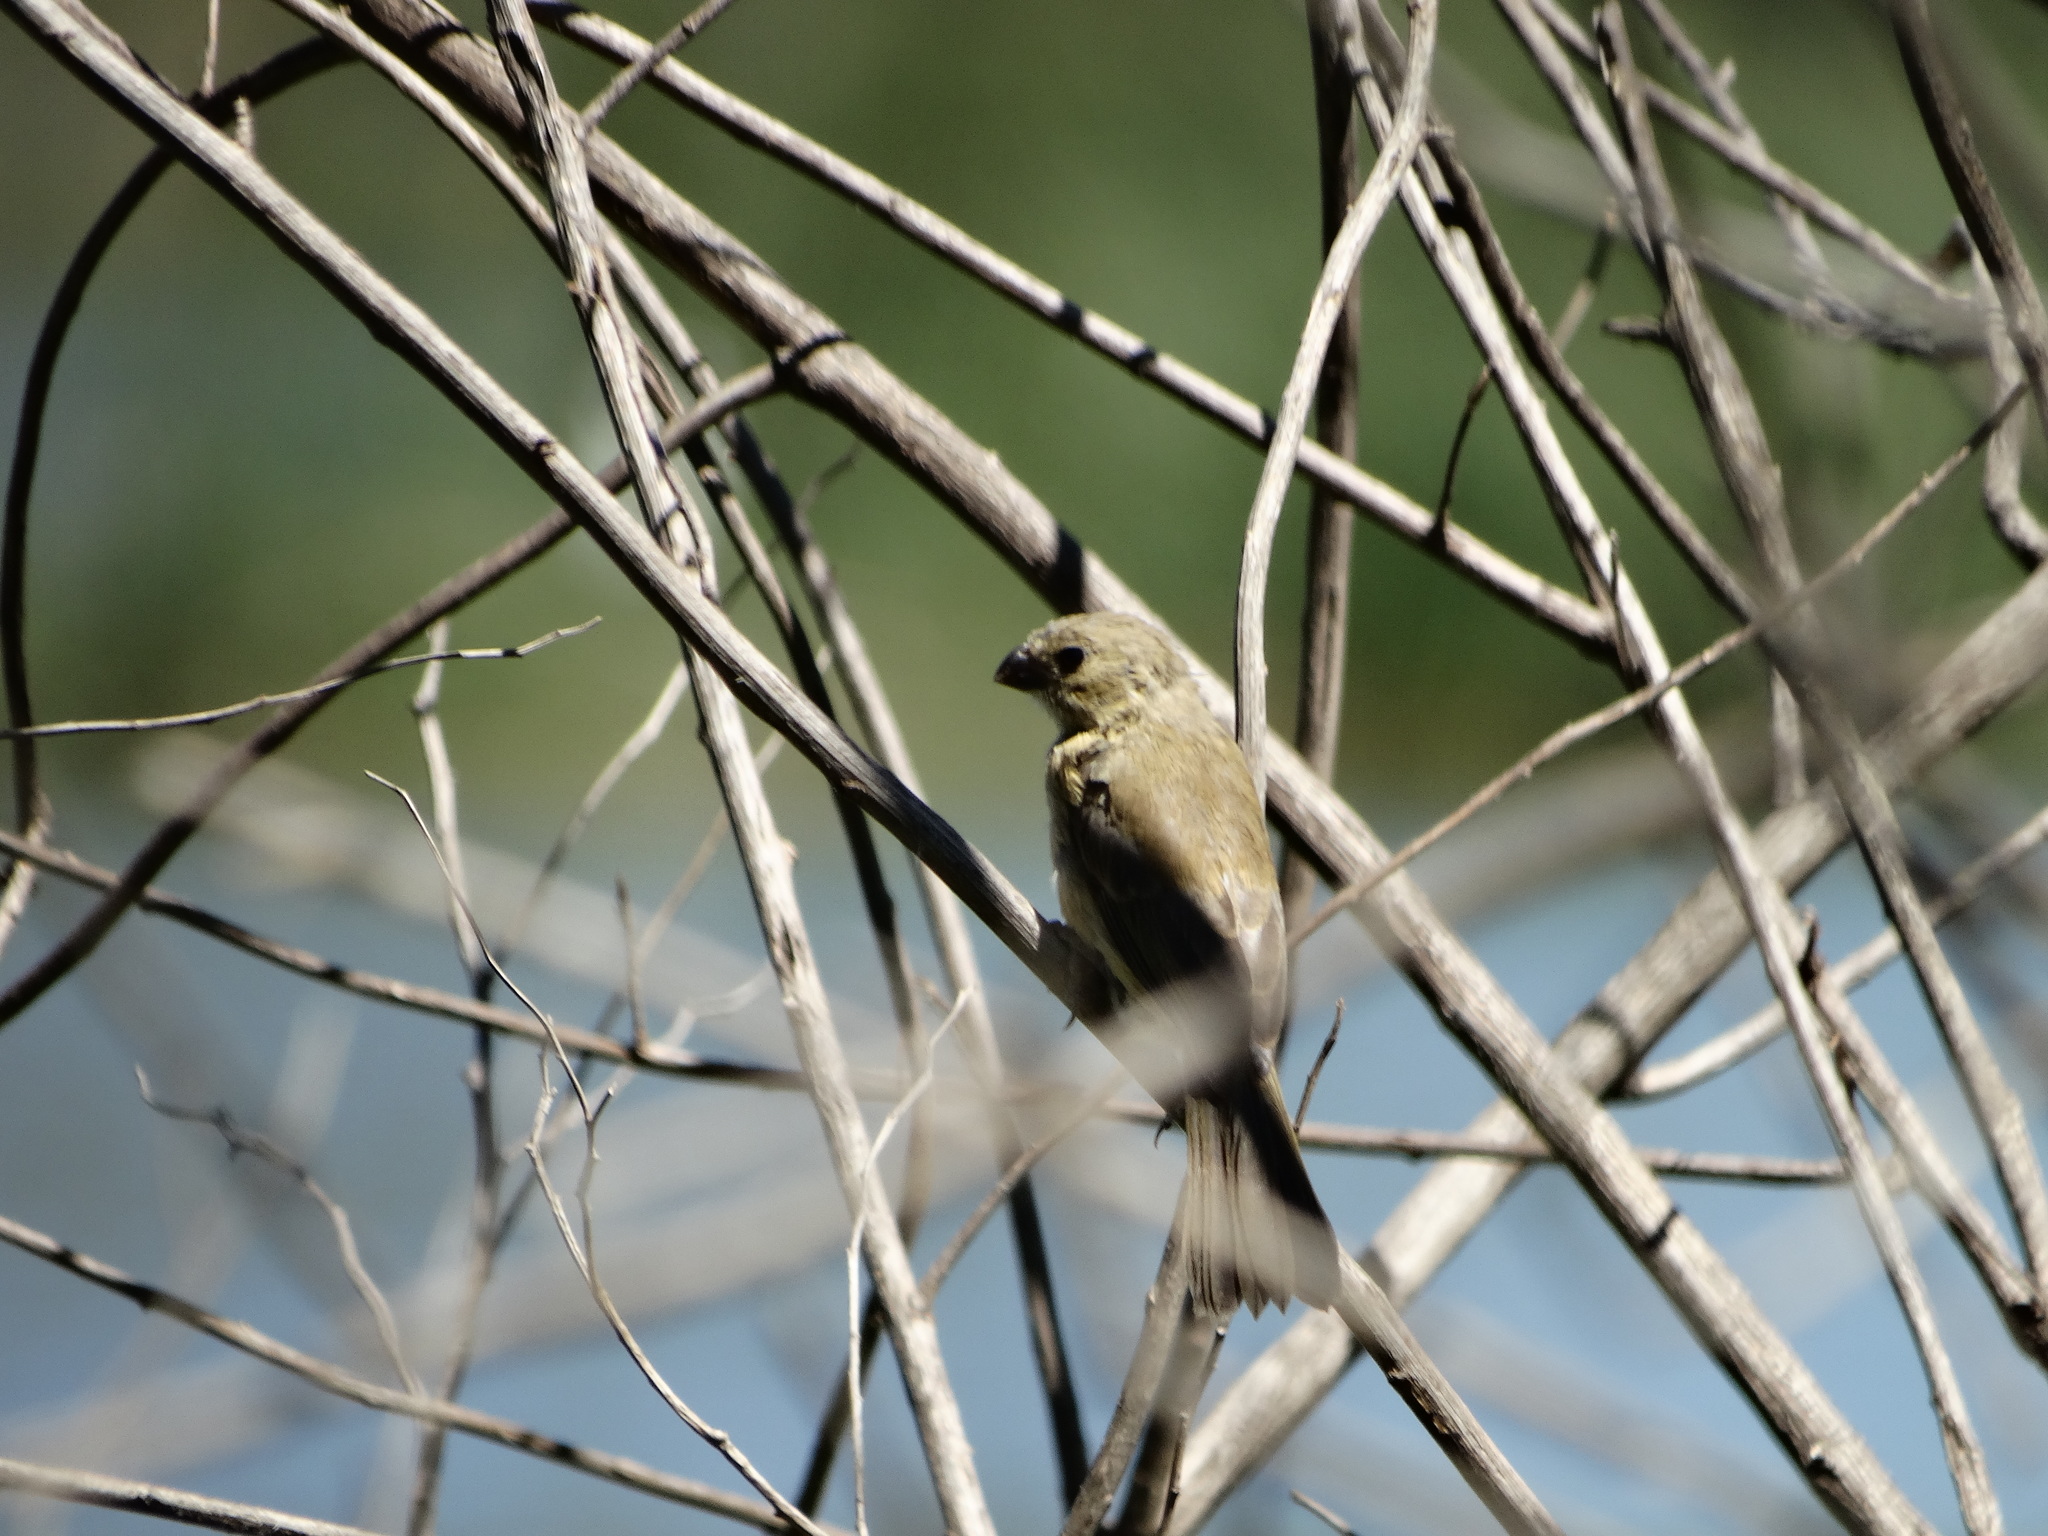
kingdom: Animalia
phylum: Chordata
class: Aves
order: Passeriformes
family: Thraupidae
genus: Sporophila
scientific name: Sporophila torqueola
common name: White-collared seedeater
